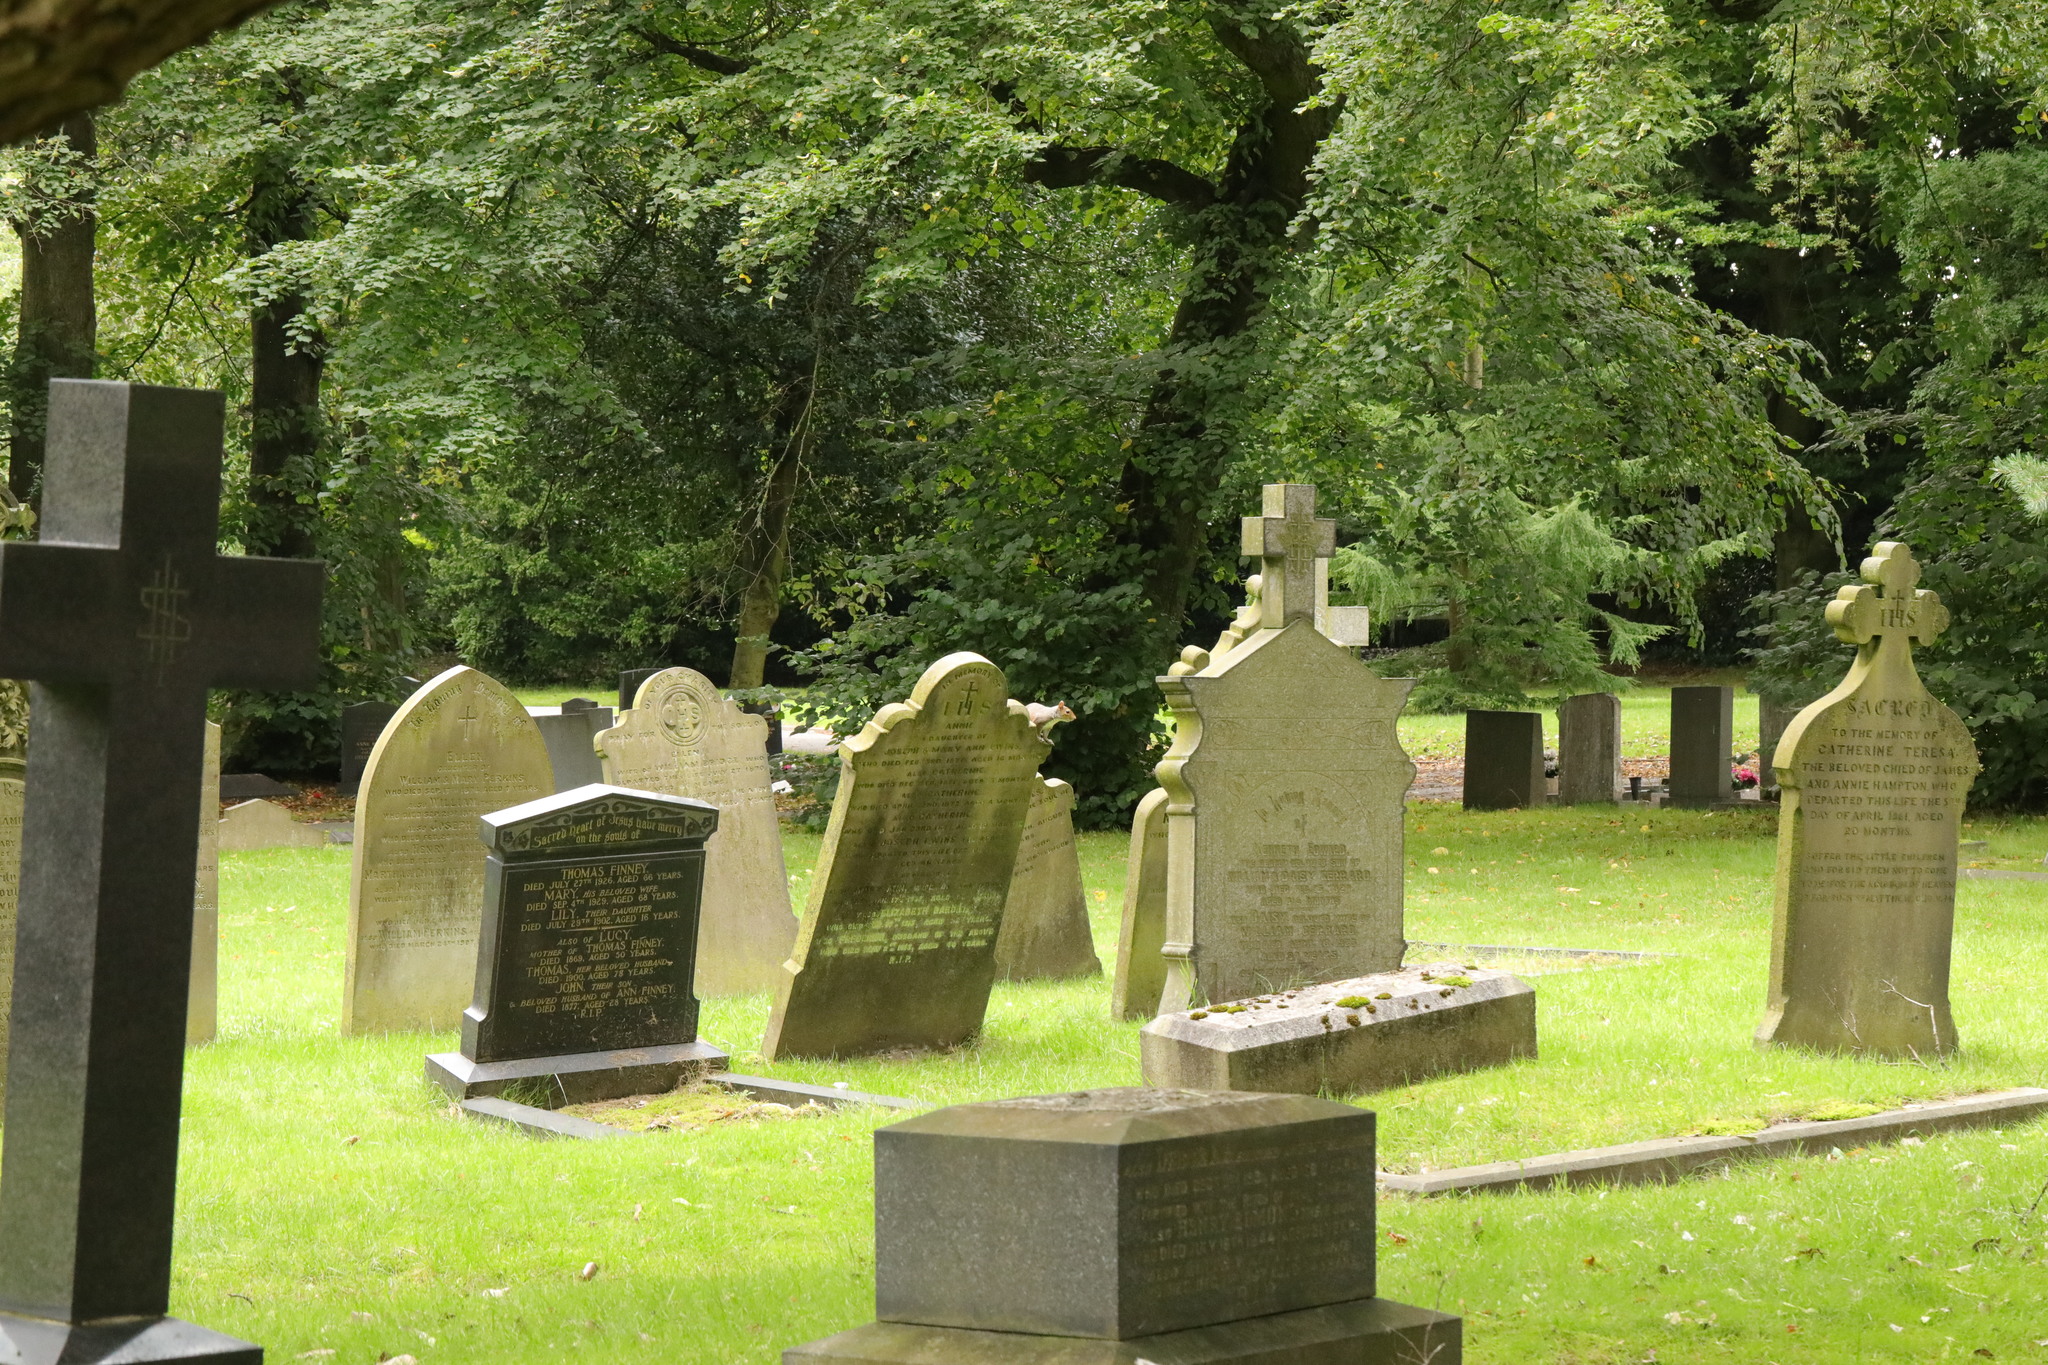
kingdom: Animalia
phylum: Chordata
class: Mammalia
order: Rodentia
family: Sciuridae
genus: Sciurus
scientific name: Sciurus carolinensis
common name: Eastern gray squirrel
